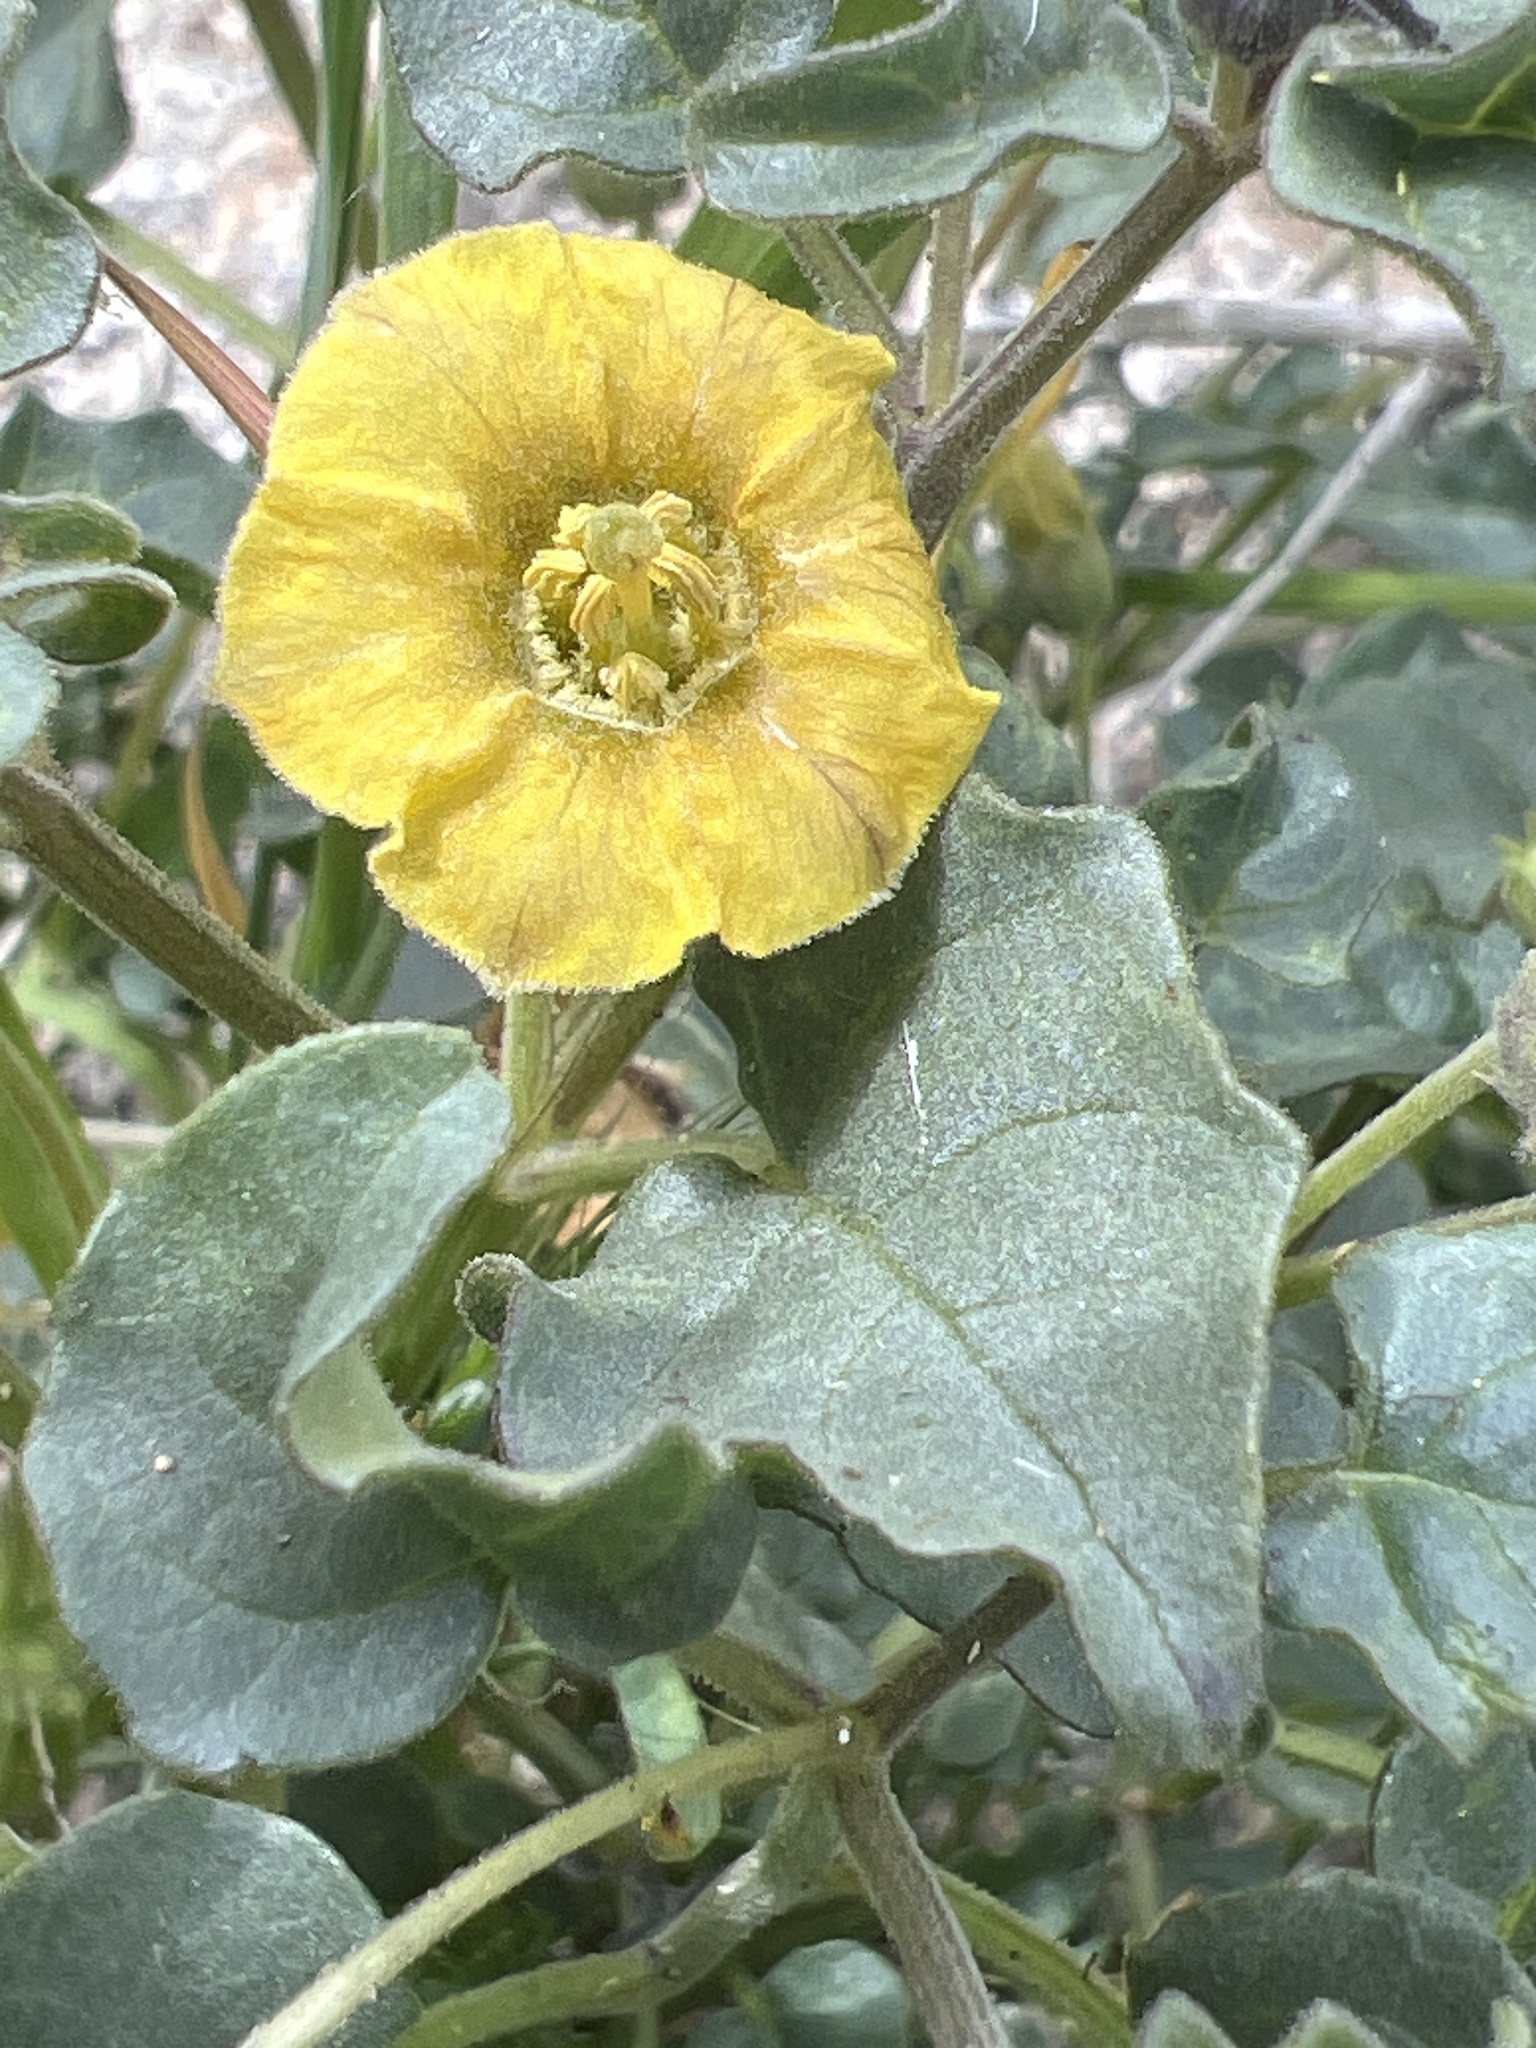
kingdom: Plantae
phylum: Tracheophyta
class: Magnoliopsida
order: Solanales
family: Solanaceae
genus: Physalis
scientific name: Physalis crassifolia
